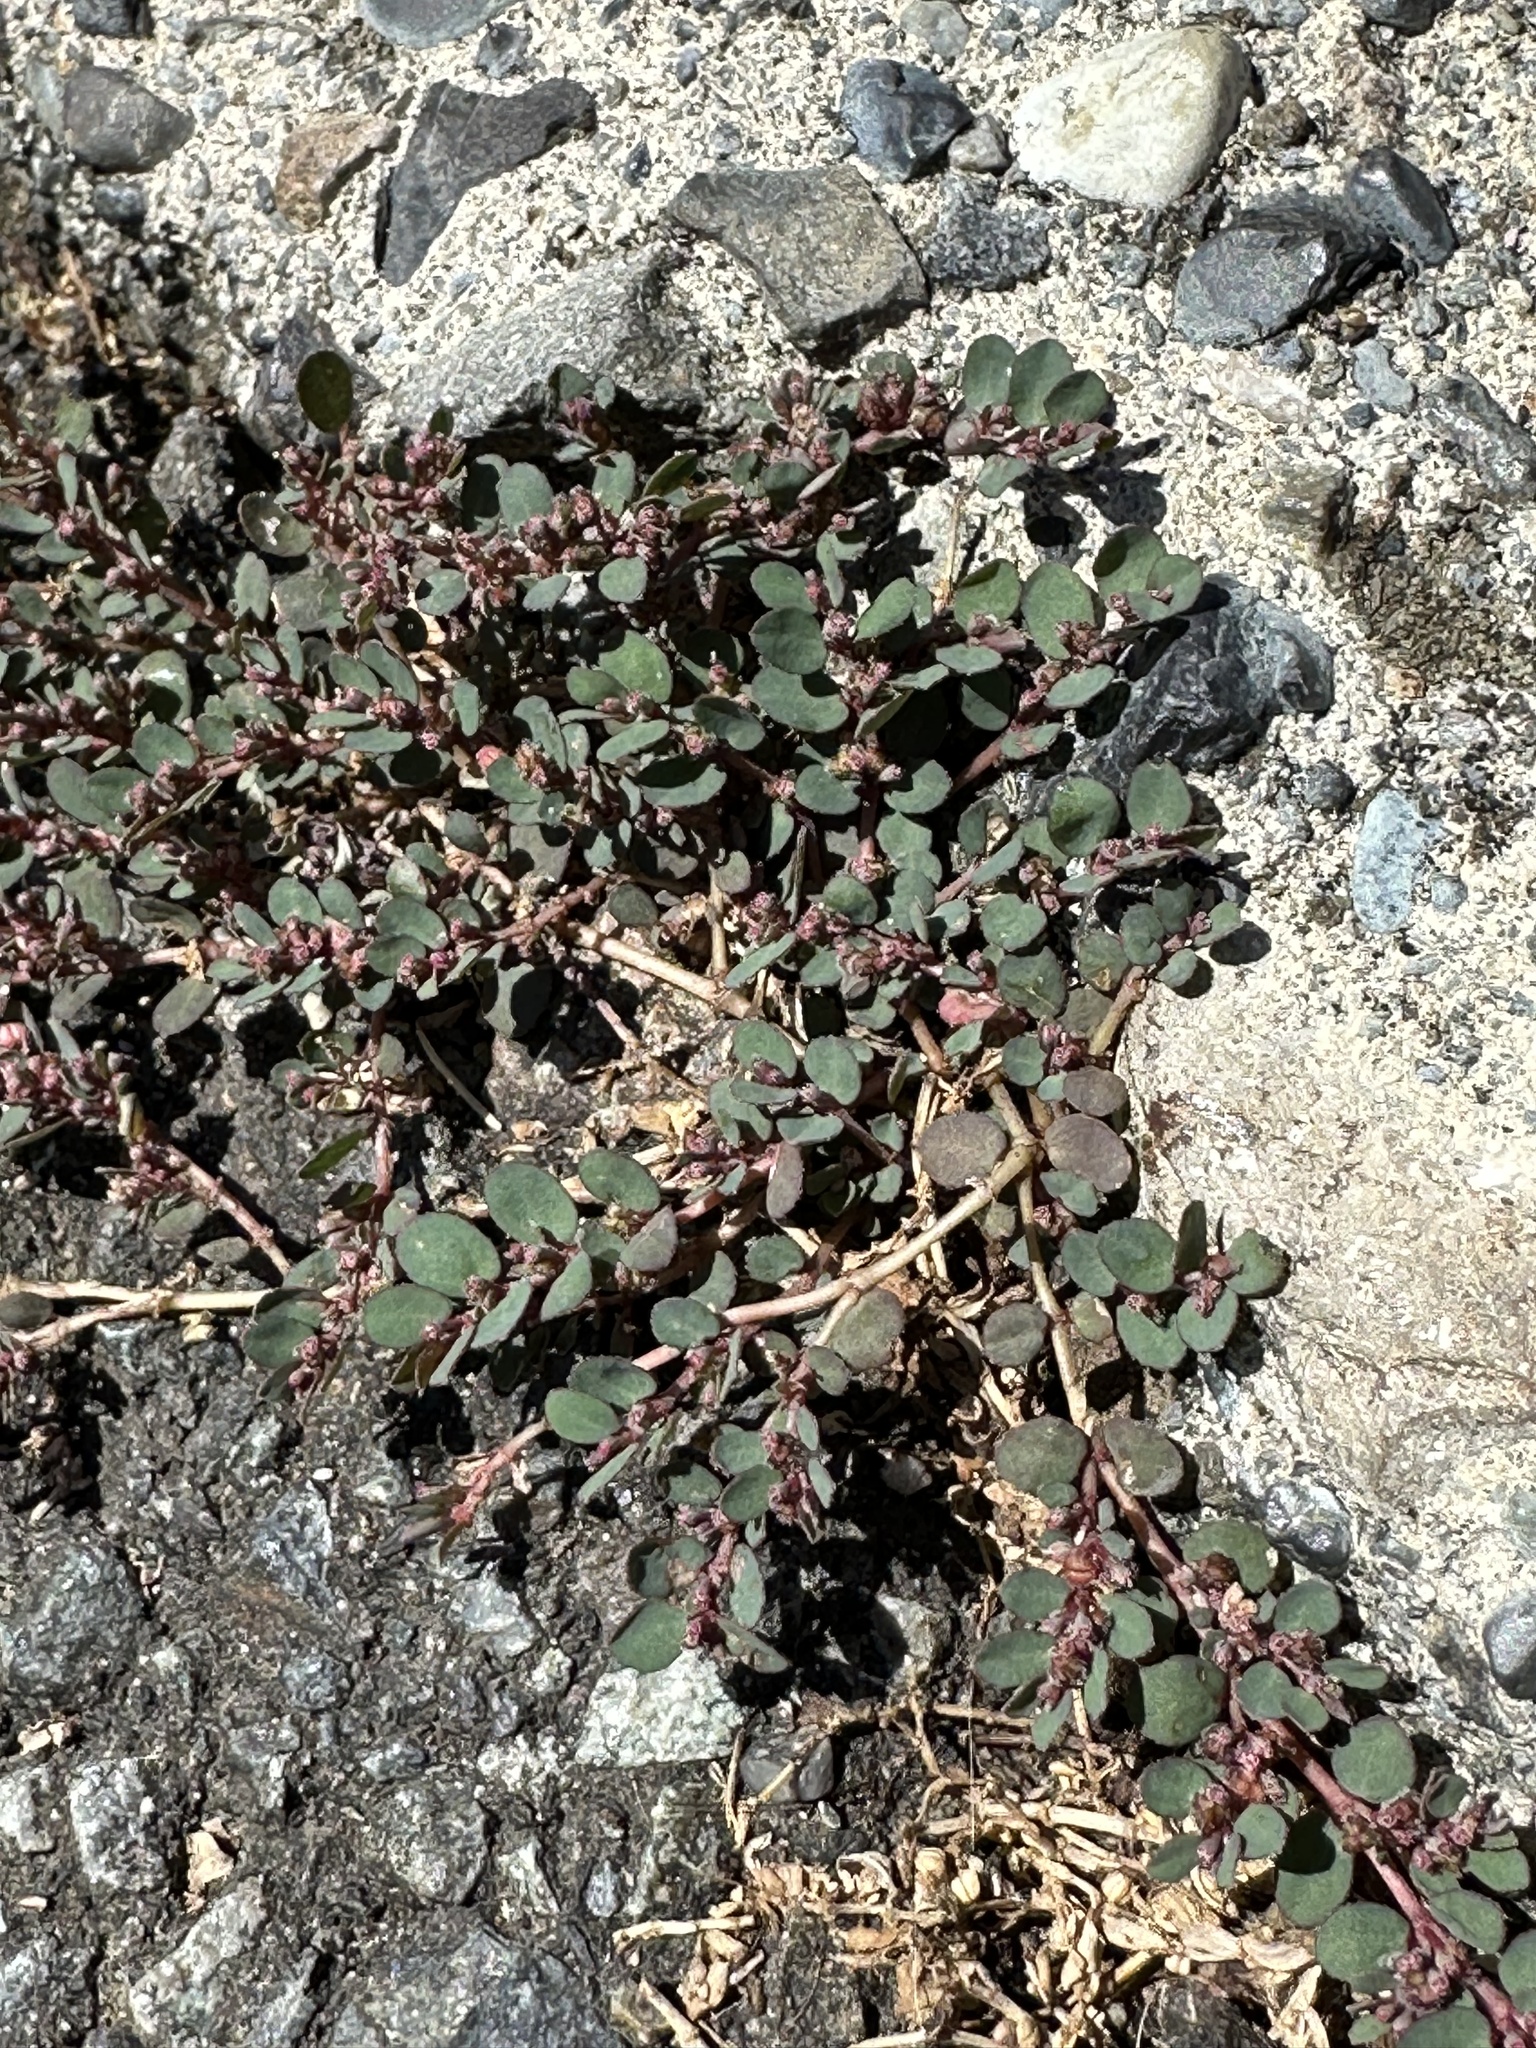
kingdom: Plantae
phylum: Tracheophyta
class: Magnoliopsida
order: Malpighiales
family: Euphorbiaceae
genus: Euphorbia
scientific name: Euphorbia prostrata
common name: Prostrate sandmat
